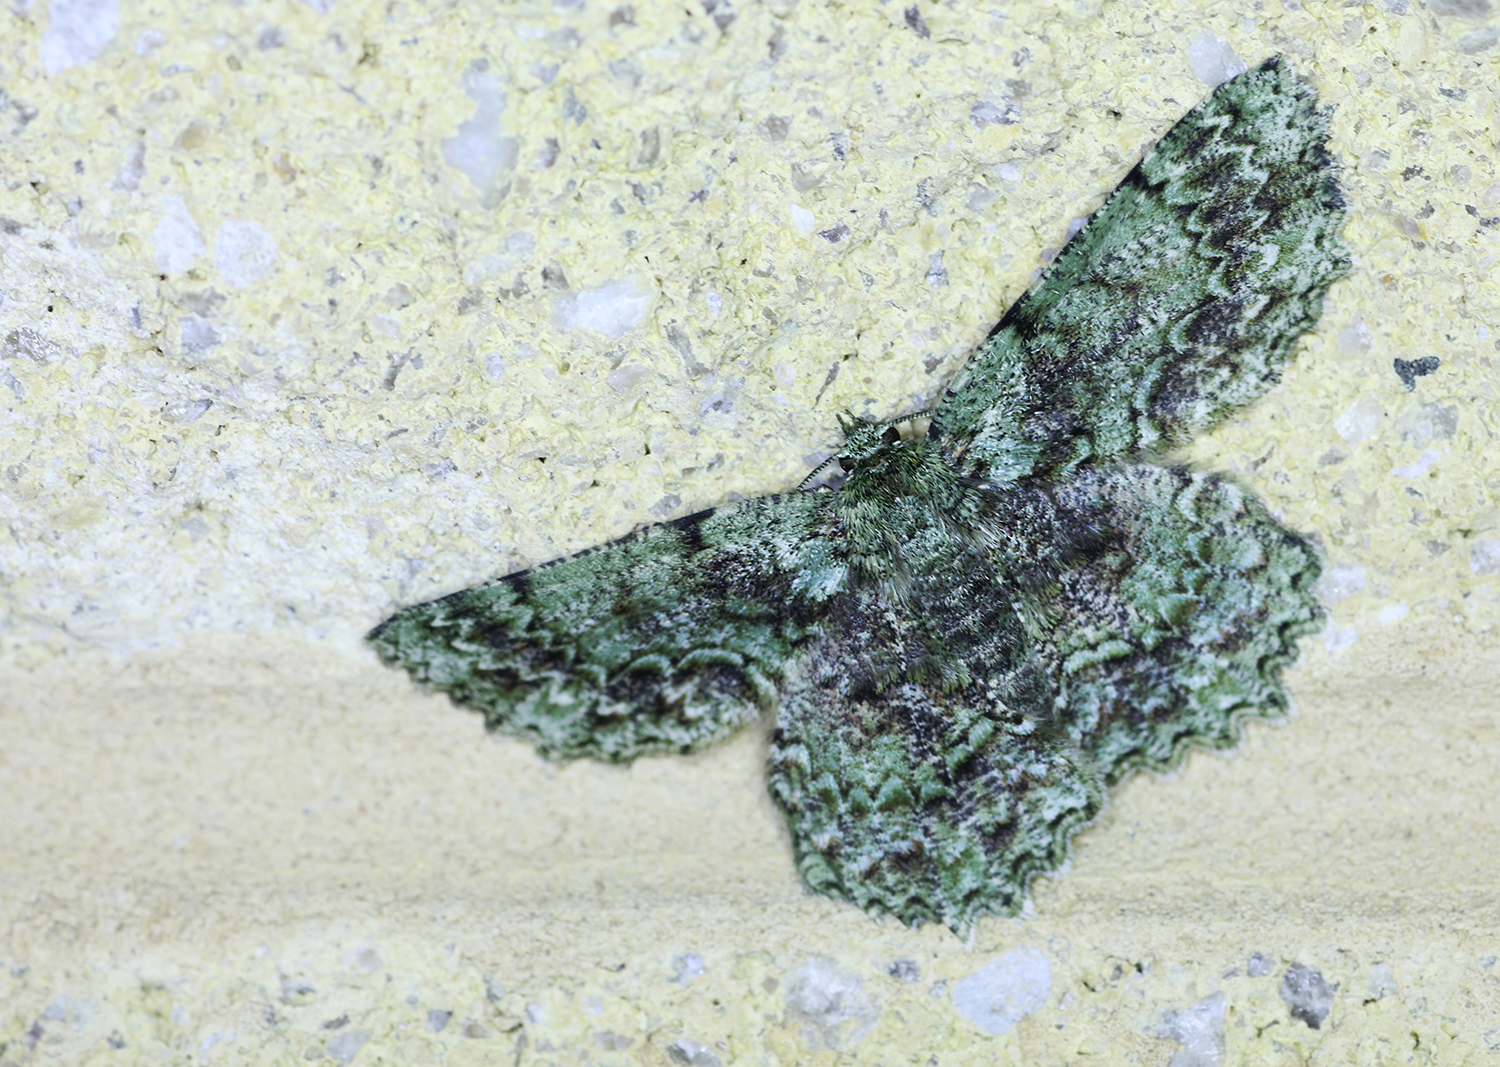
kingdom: Animalia
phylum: Arthropoda
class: Insecta
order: Lepidoptera
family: Geometridae
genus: Hypodoxa
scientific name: Hypodoxa muscosaria
